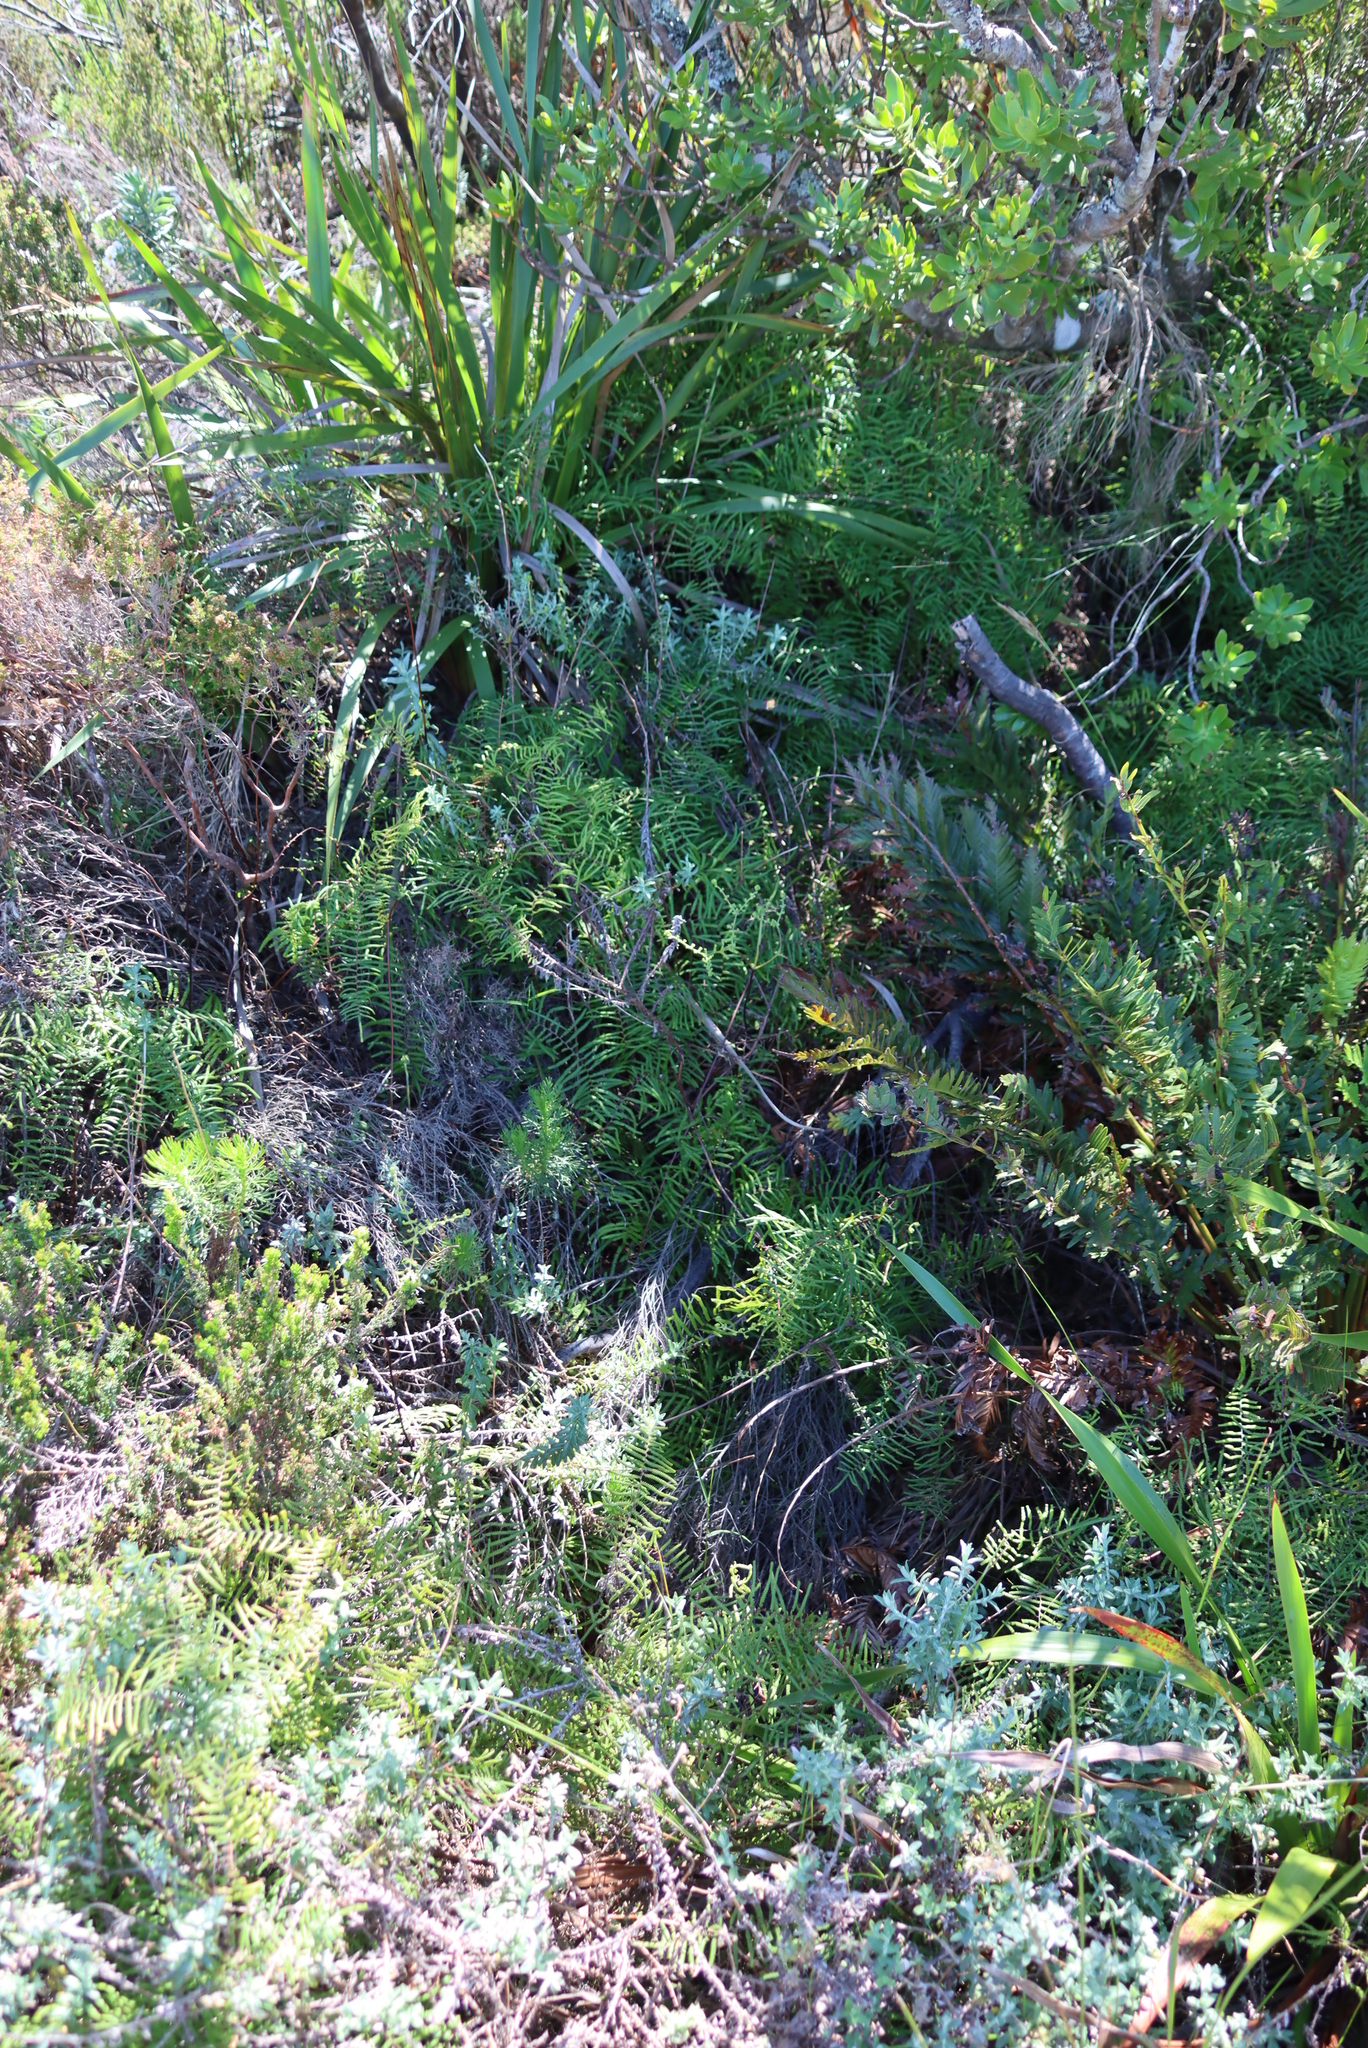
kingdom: Plantae
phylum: Tracheophyta
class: Polypodiopsida
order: Gleicheniales
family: Gleicheniaceae
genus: Gleichenia
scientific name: Gleichenia polypodioides
